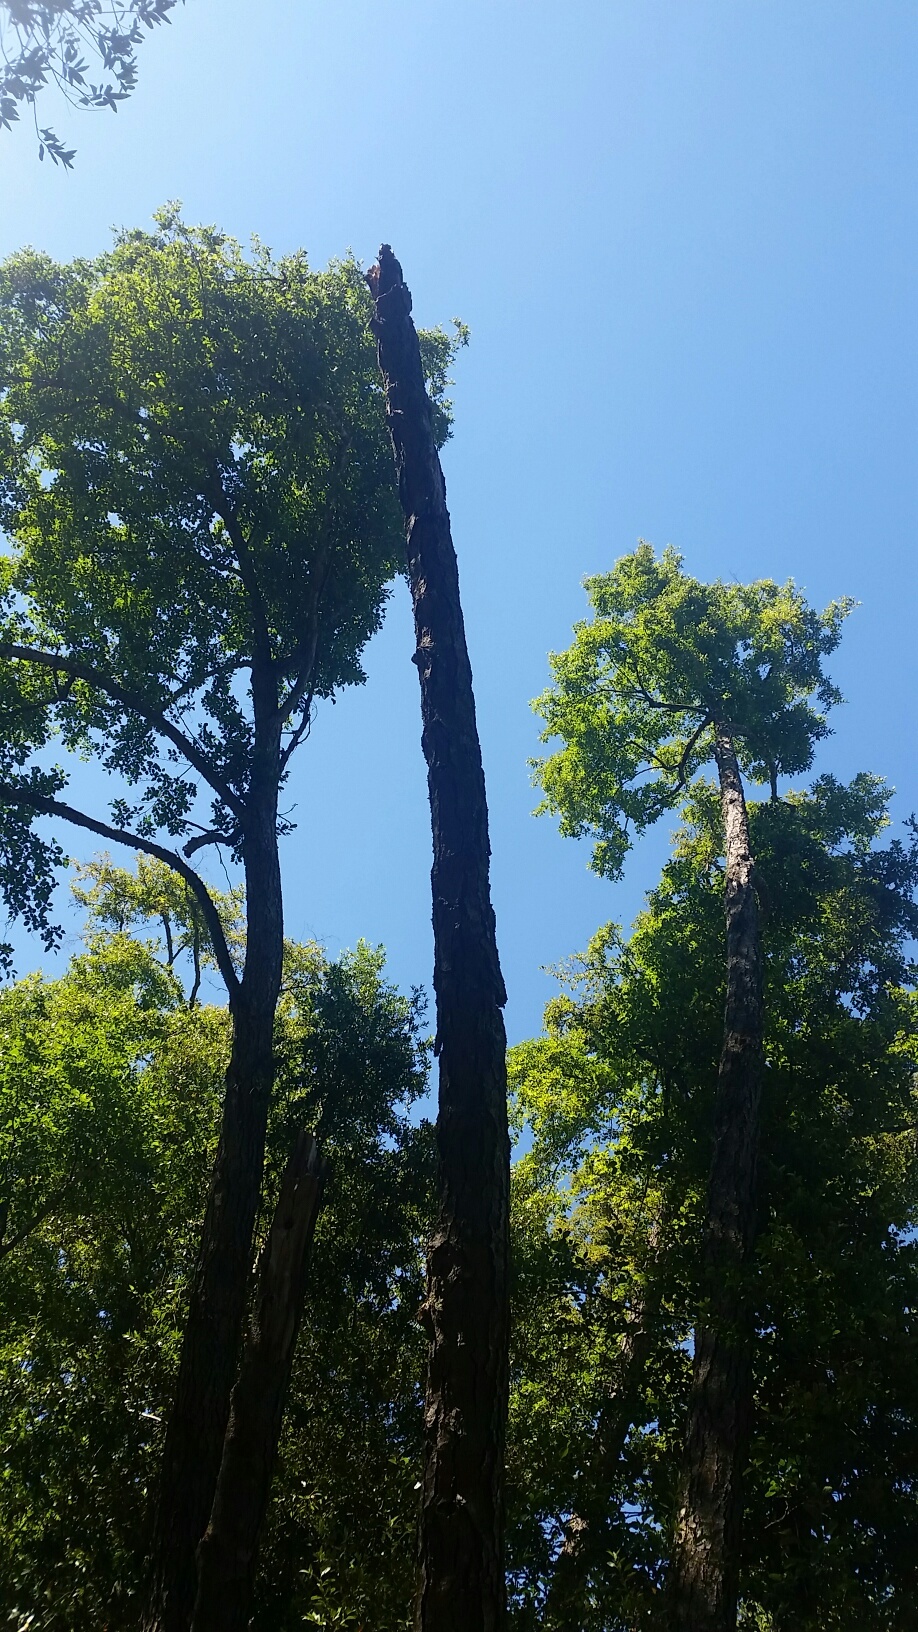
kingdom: Plantae
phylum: Tracheophyta
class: Magnoliopsida
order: Fagales
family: Betulaceae
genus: Alnus
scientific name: Alnus rhombifolia
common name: California alder
